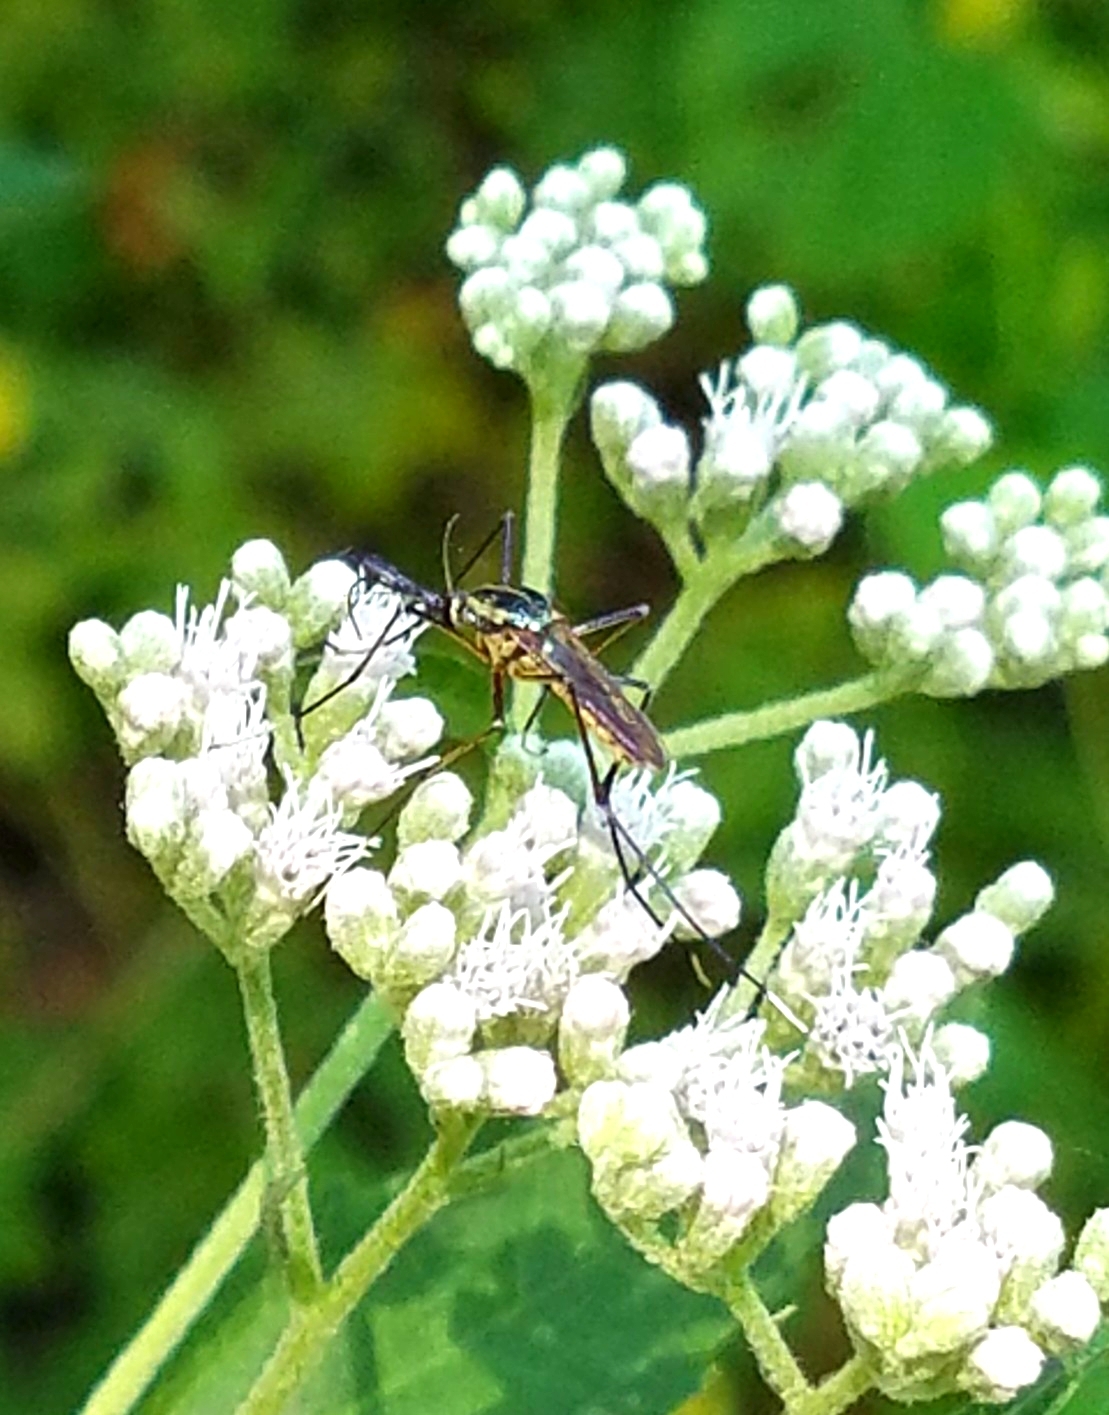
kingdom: Animalia
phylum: Arthropoda
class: Insecta
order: Diptera
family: Culicidae
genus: Toxorhynchites
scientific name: Toxorhynchites rutilus
